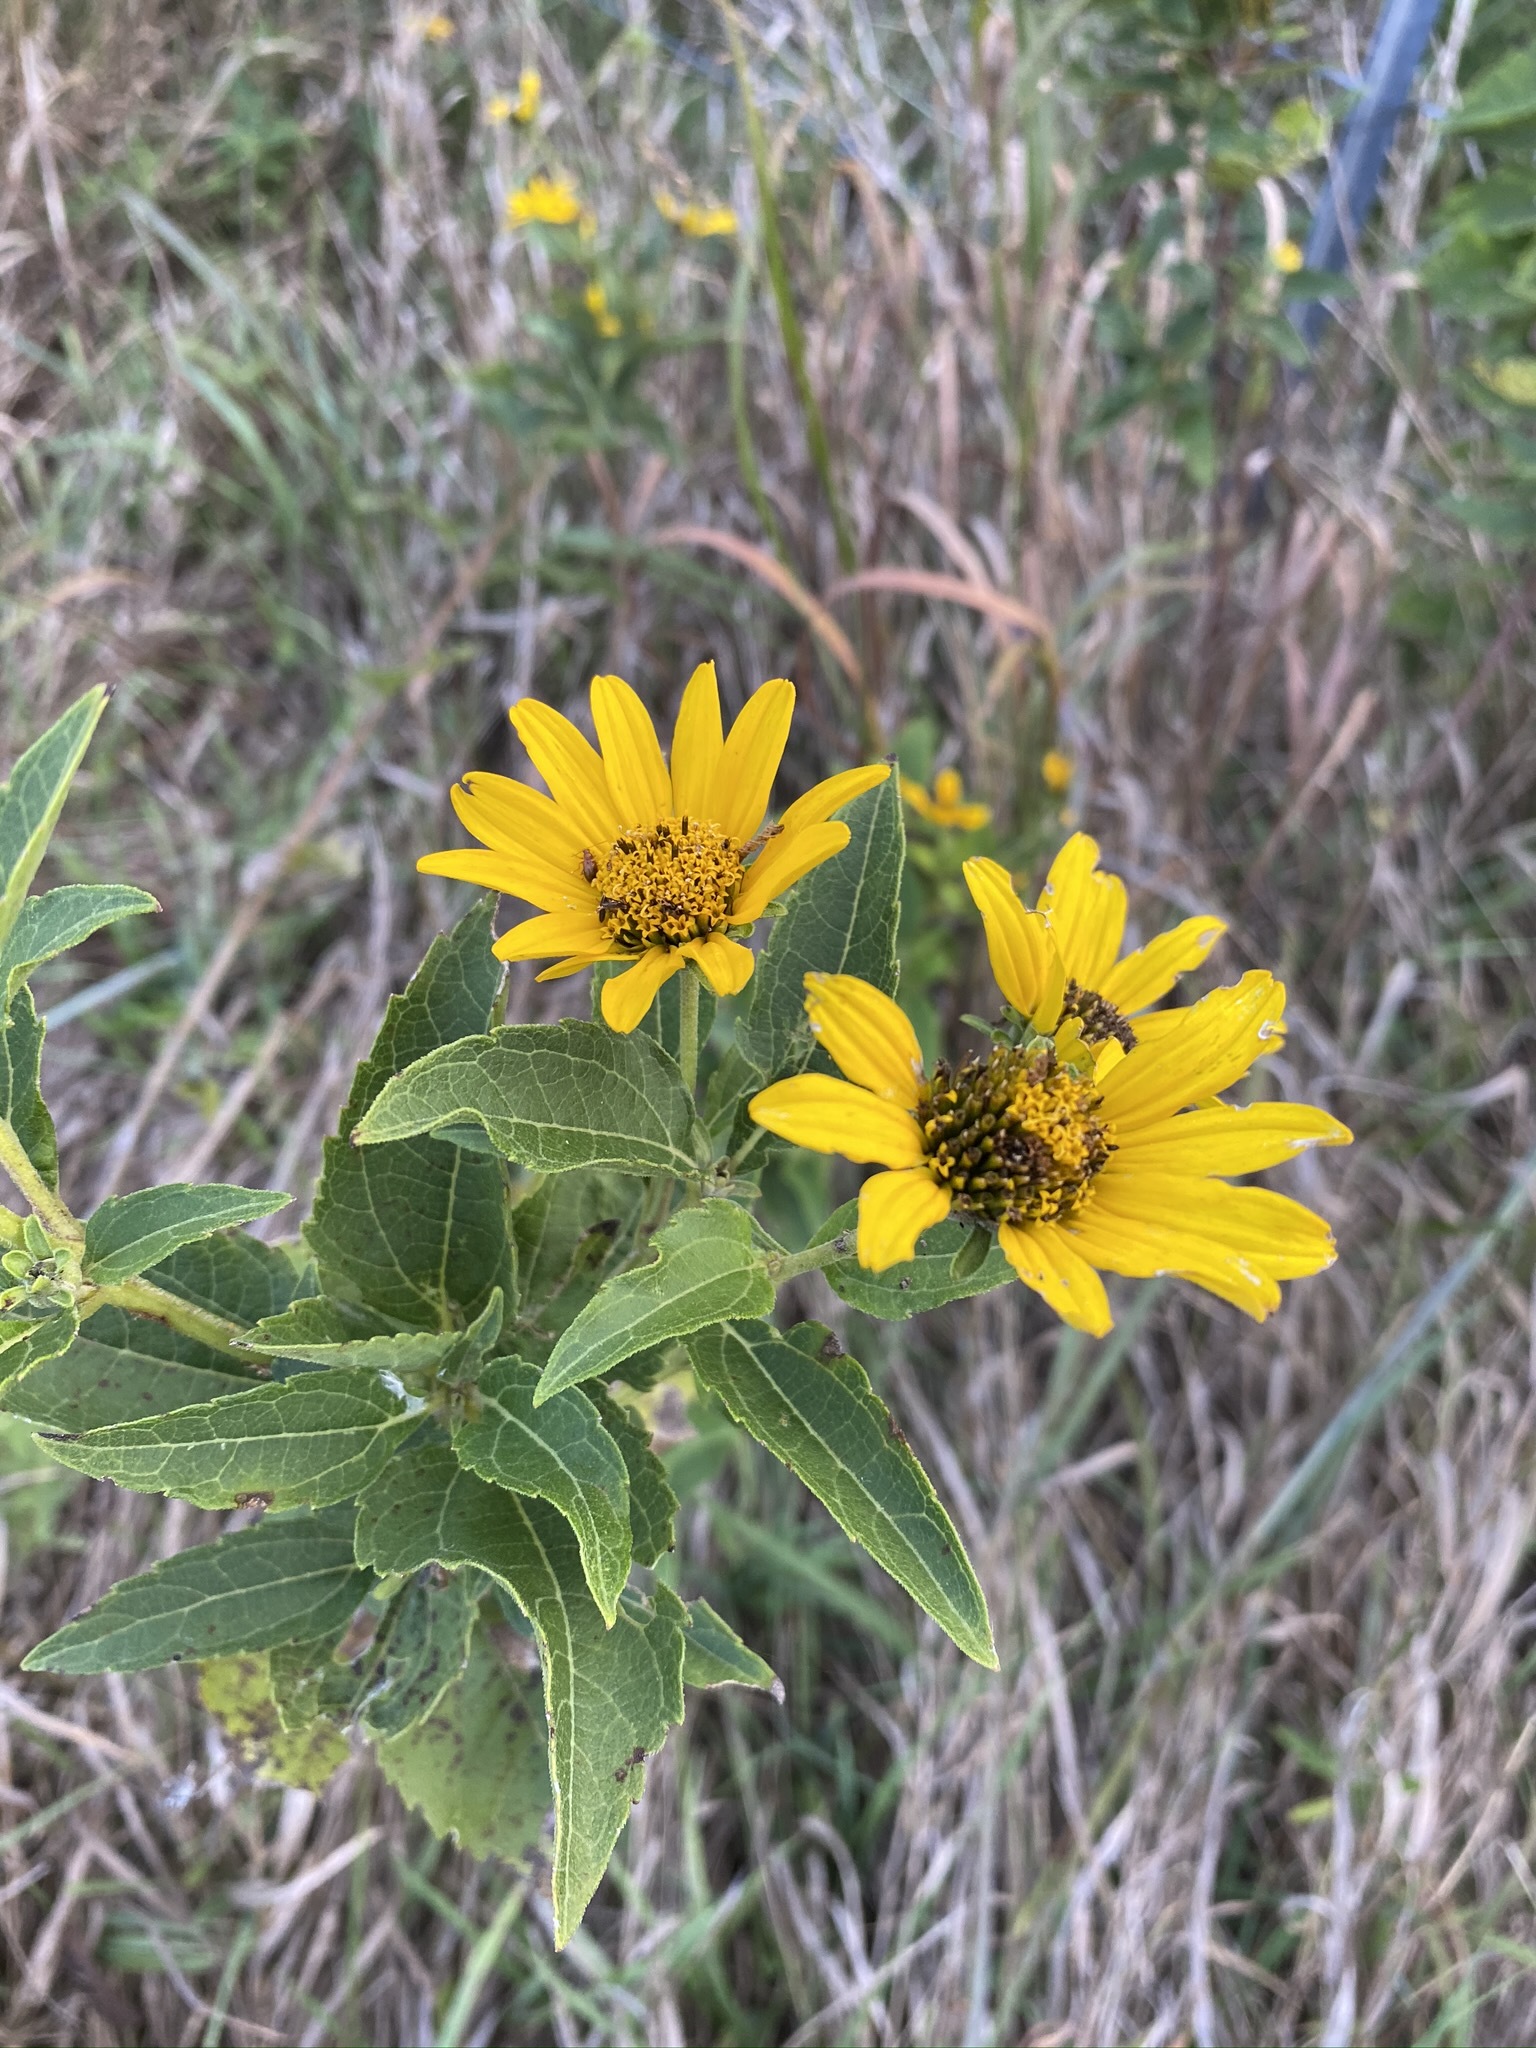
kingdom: Plantae
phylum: Tracheophyta
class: Magnoliopsida
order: Asterales
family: Asteraceae
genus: Heliopsis
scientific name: Heliopsis helianthoides
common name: False sunflower
